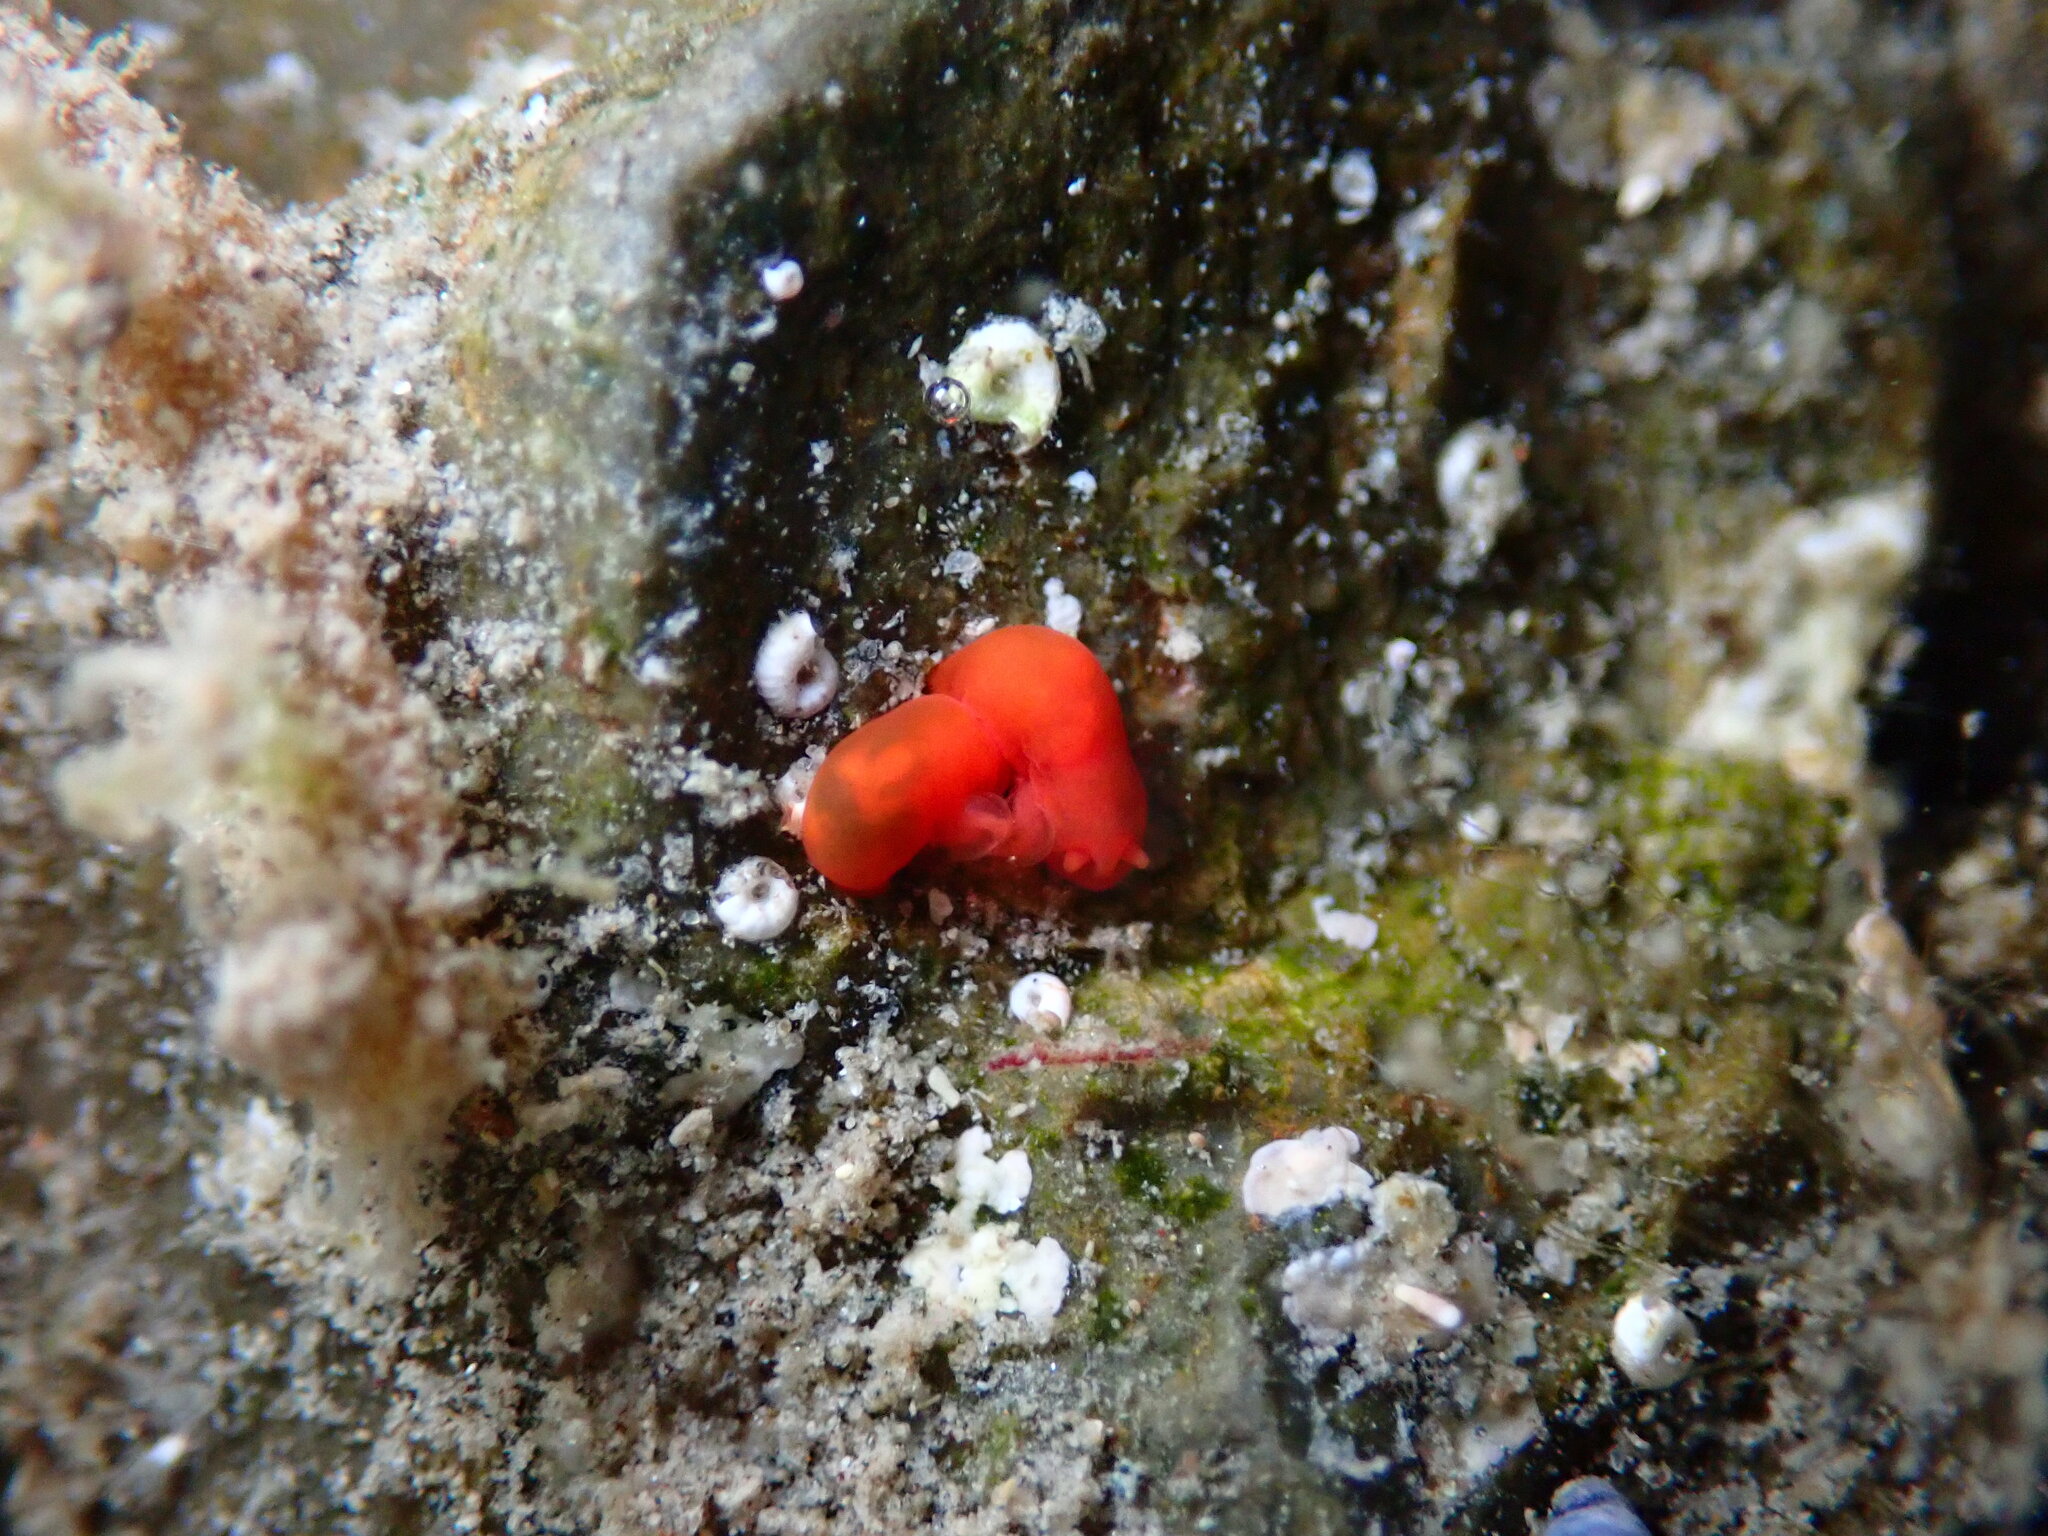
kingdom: Animalia
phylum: Mollusca
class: Gastropoda
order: Nudibranchia
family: Okadaiidae
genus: Vayssierea
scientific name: Vayssierea cinnabarea
